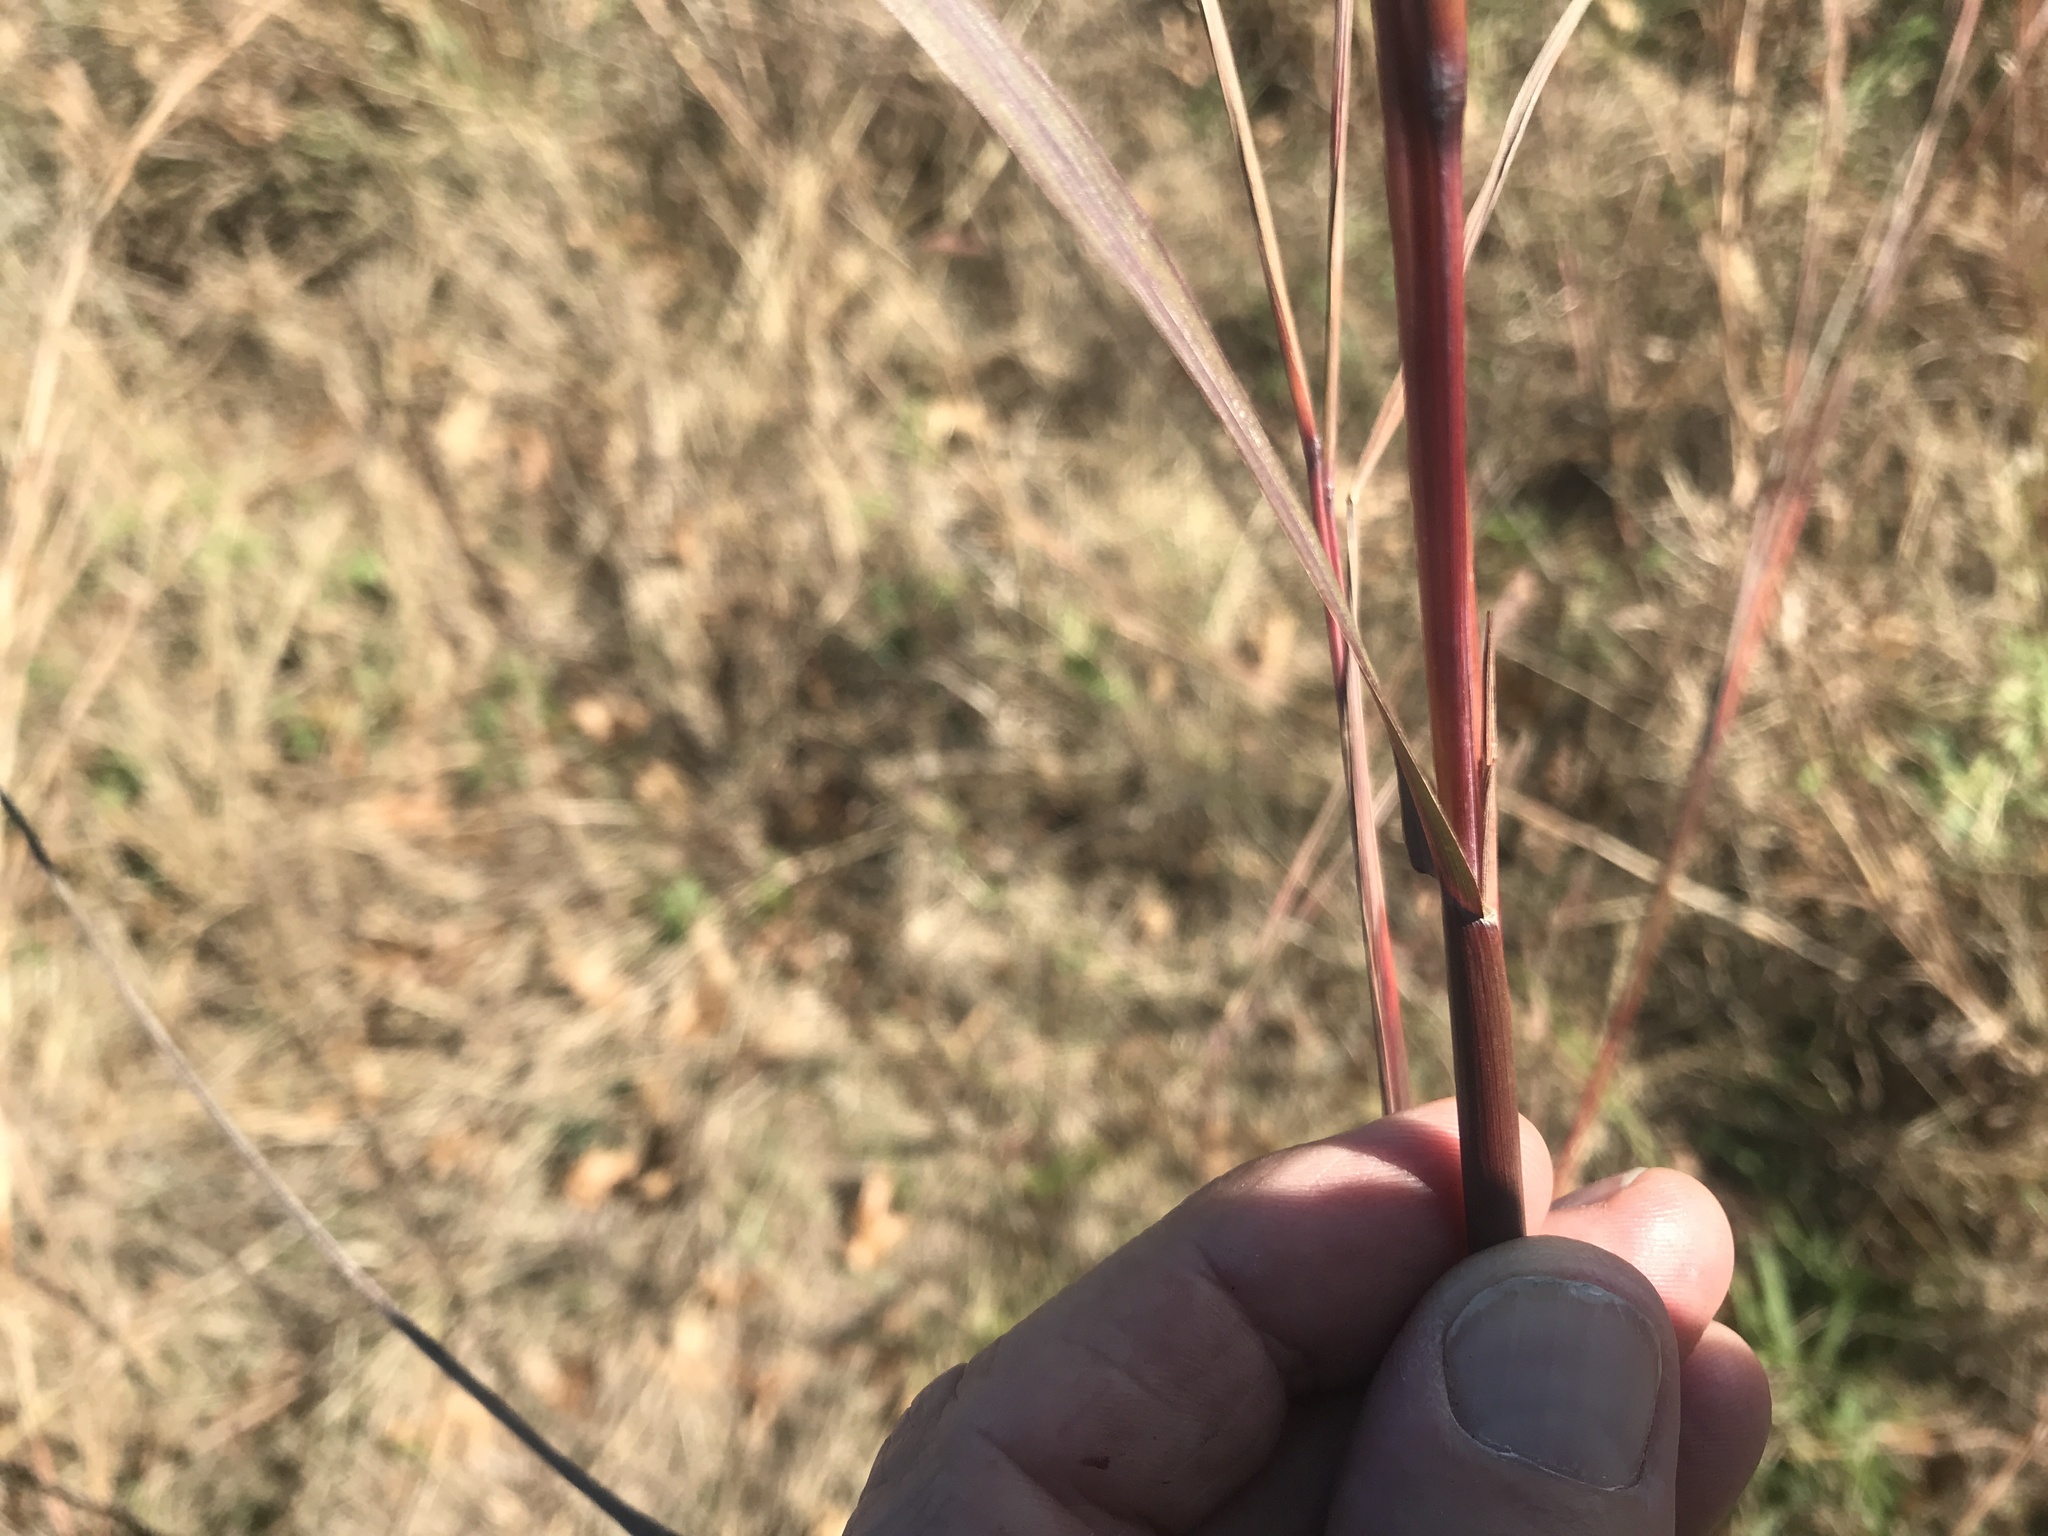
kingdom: Plantae
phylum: Tracheophyta
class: Liliopsida
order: Poales
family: Poaceae
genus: Andropogon
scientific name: Andropogon gerardi
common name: Big bluestem
